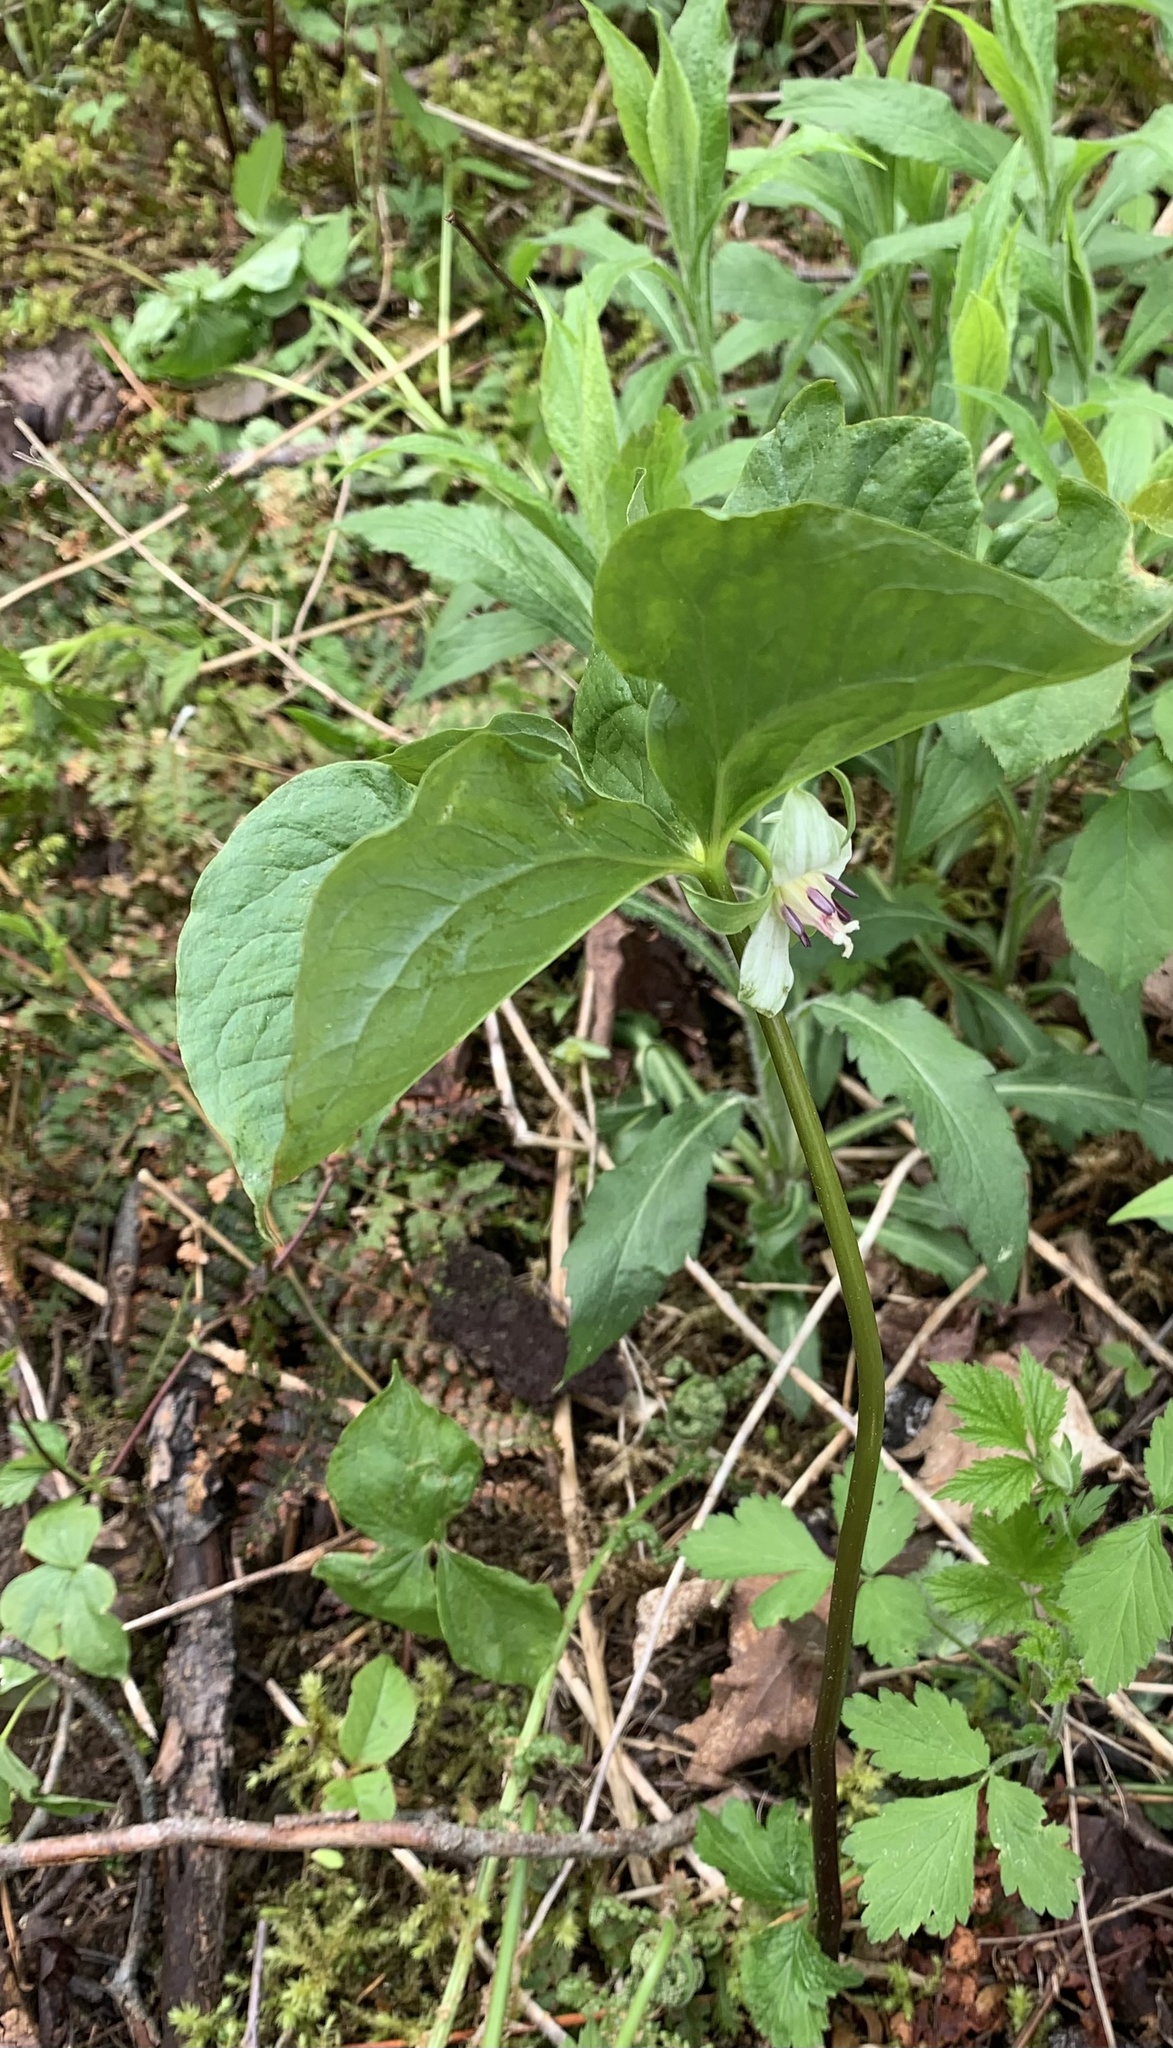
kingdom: Plantae
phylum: Tracheophyta
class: Liliopsida
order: Liliales
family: Melanthiaceae
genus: Trillium
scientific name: Trillium cernuum
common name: Nodding trillium
